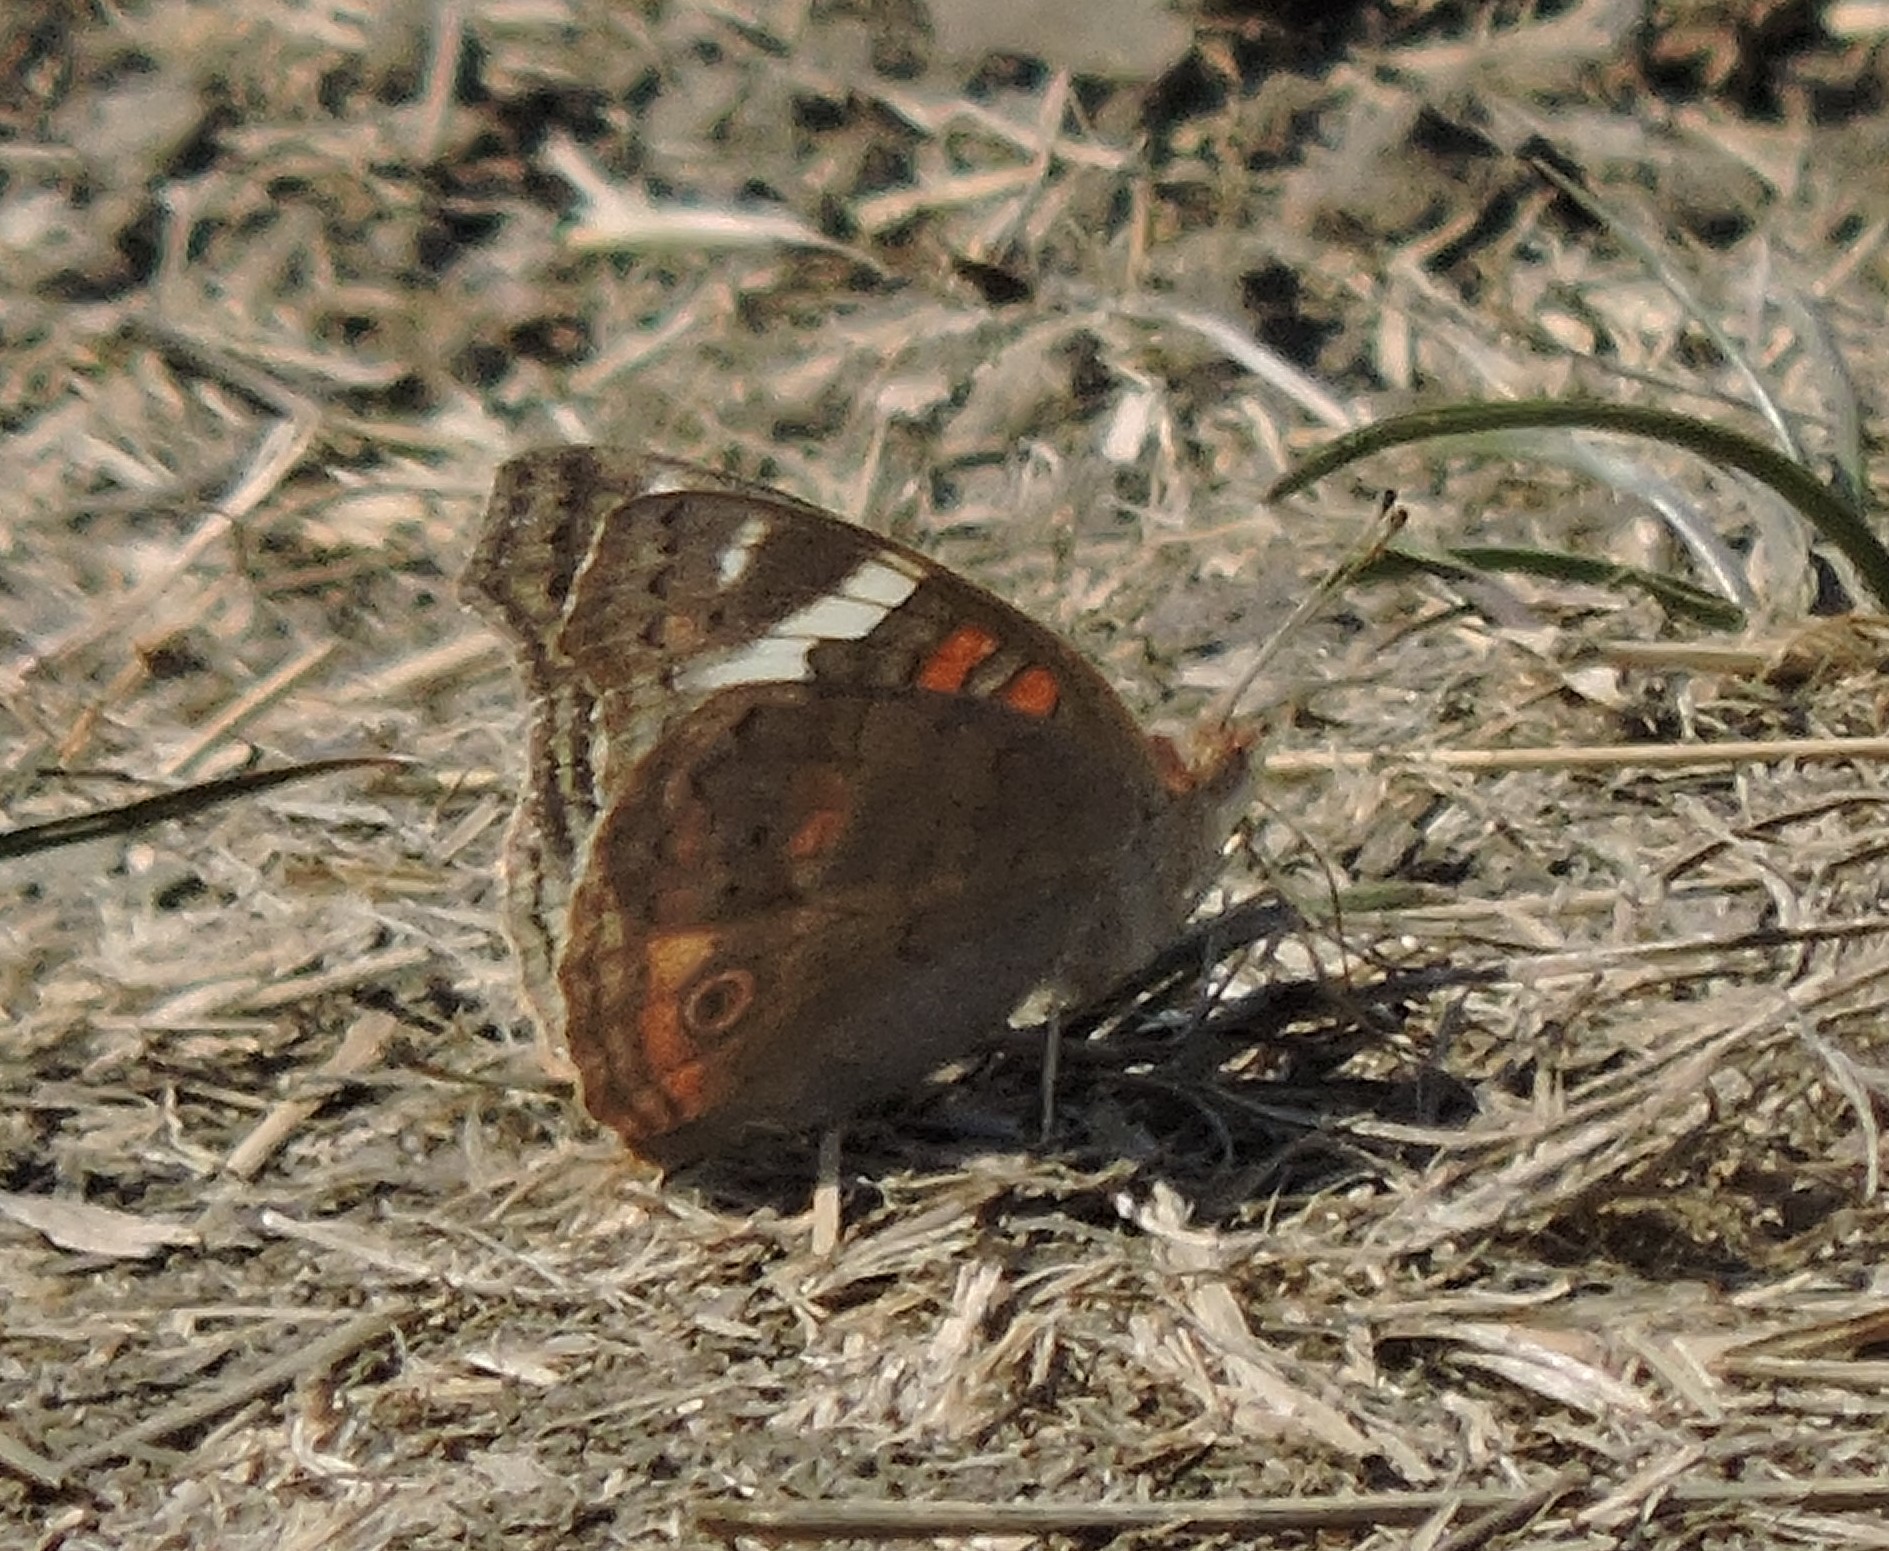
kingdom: Animalia
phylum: Arthropoda
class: Insecta
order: Lepidoptera
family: Nymphalidae
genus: Junonia
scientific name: Junonia grisea
